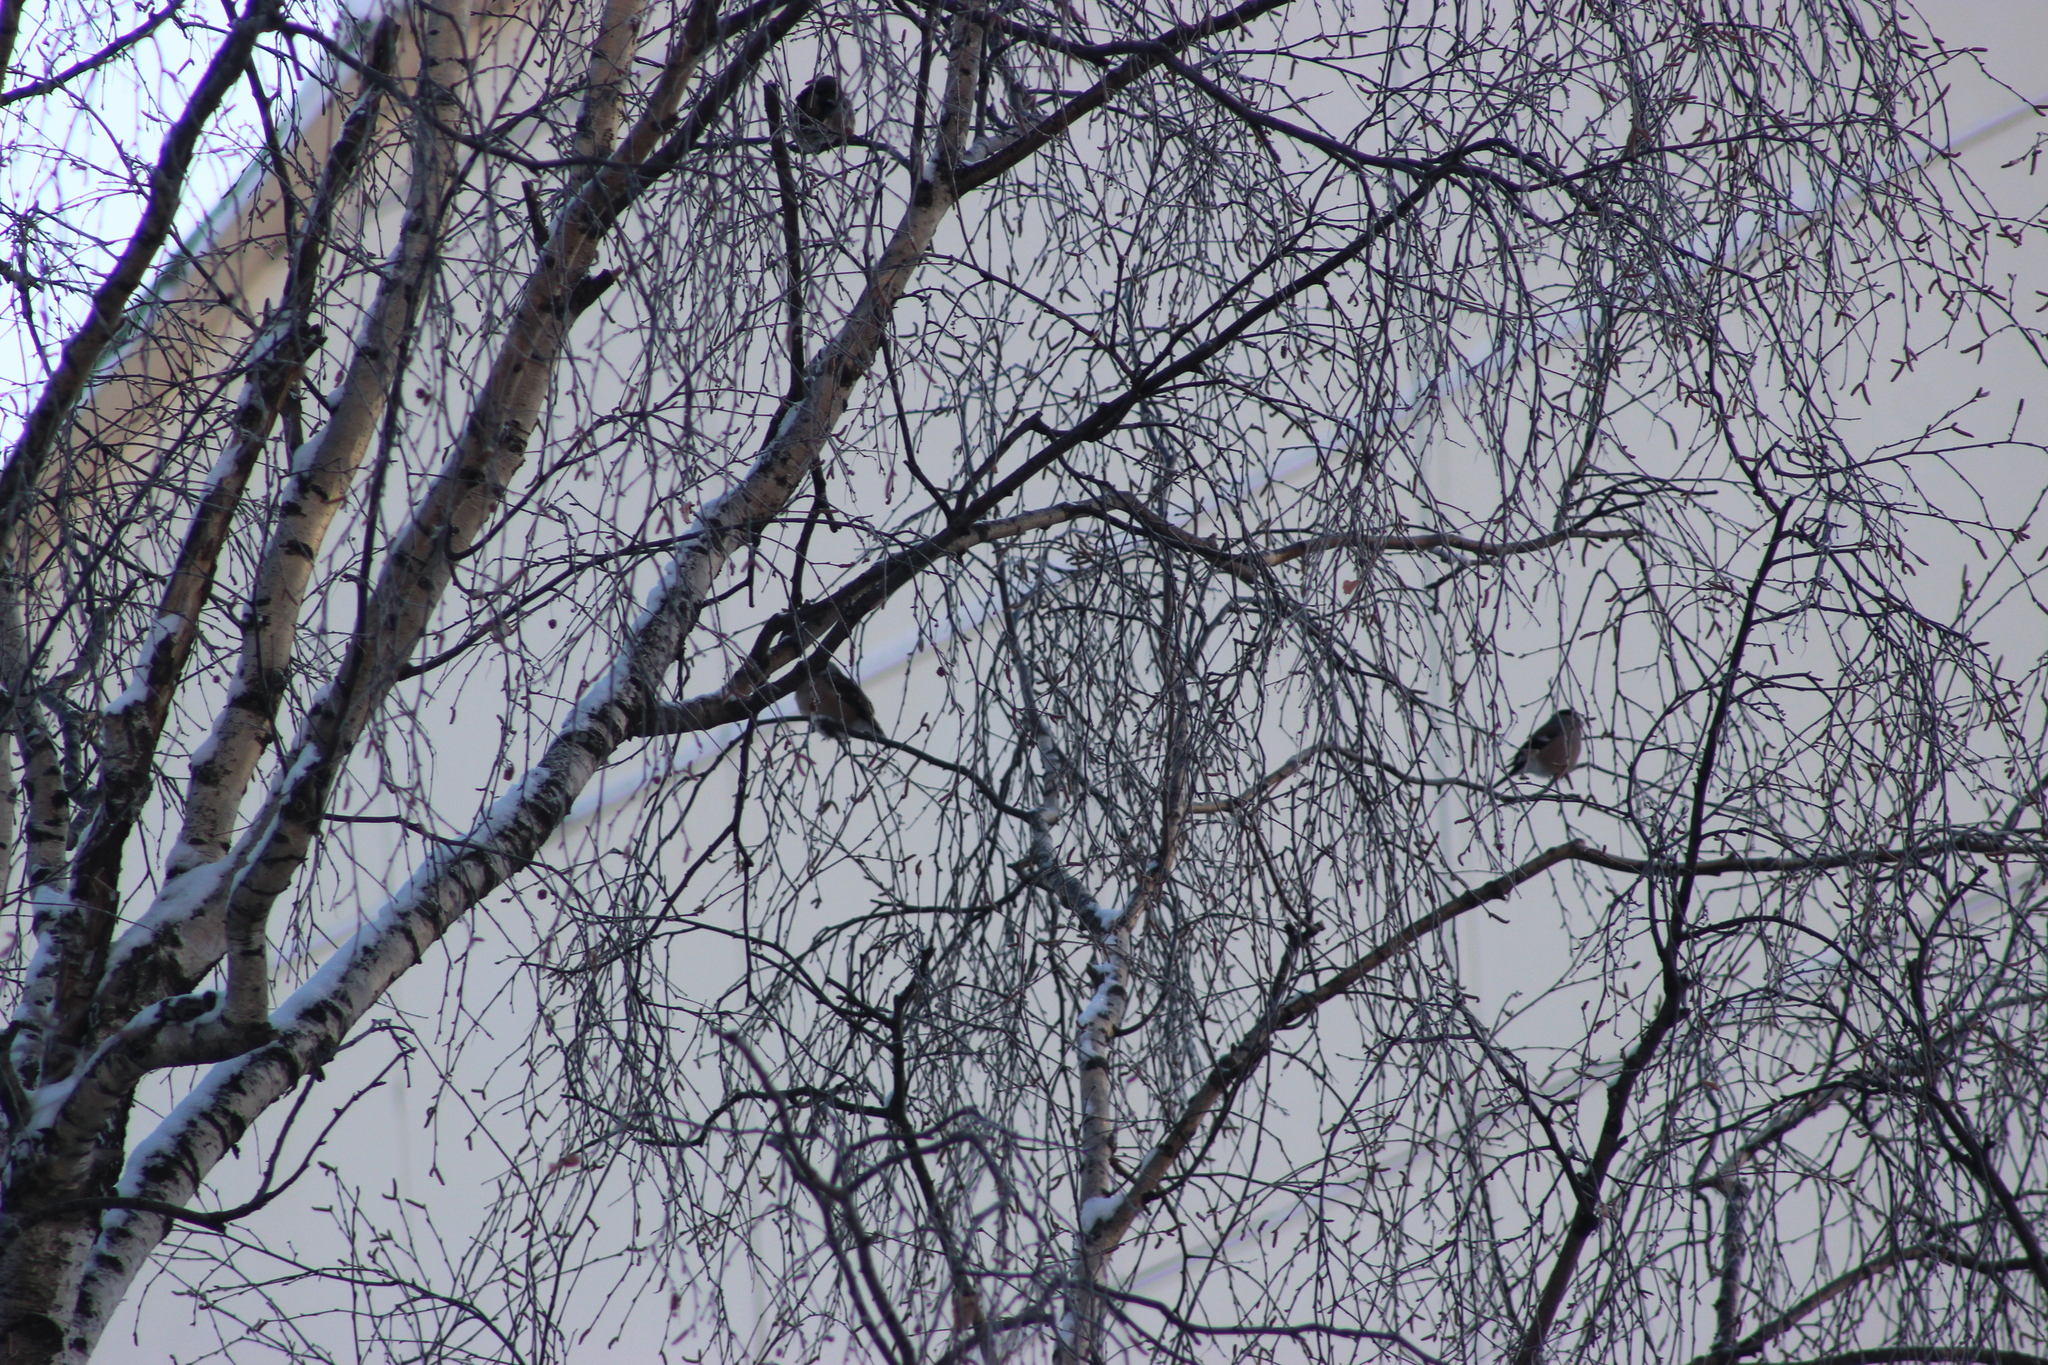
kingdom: Animalia
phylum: Chordata
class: Aves
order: Passeriformes
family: Fringillidae
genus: Coccothraustes
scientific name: Coccothraustes coccothraustes
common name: Hawfinch
